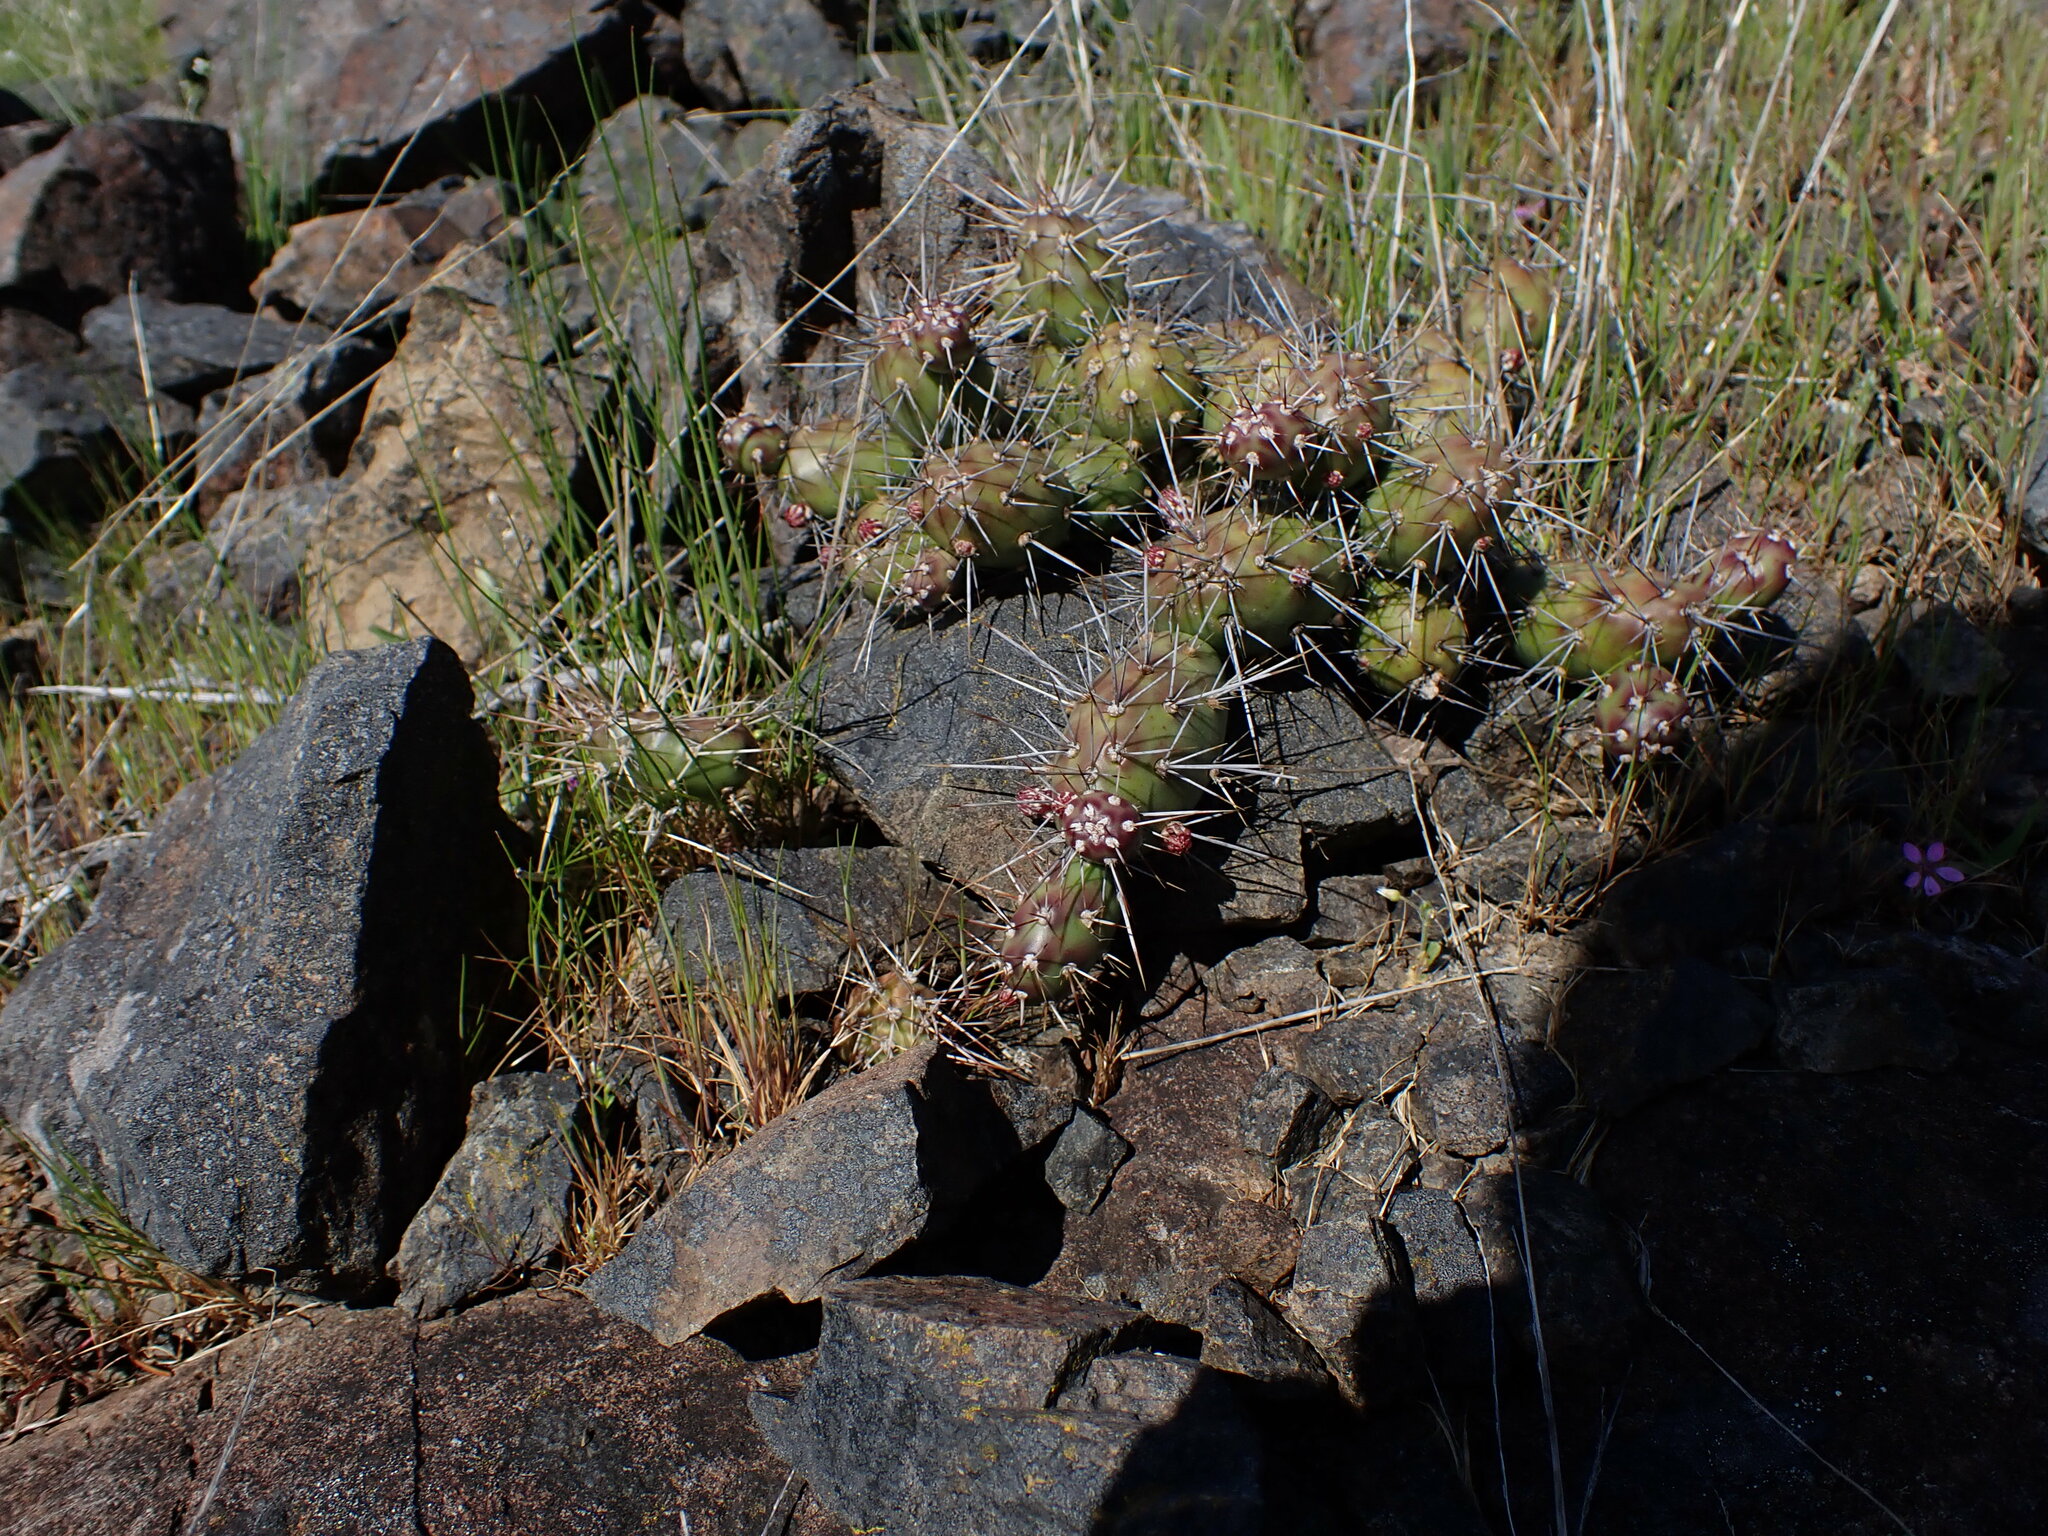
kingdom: Plantae
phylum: Tracheophyta
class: Magnoliopsida
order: Caryophyllales
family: Cactaceae
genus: Opuntia
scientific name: Opuntia fragilis
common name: Brittle cactus
